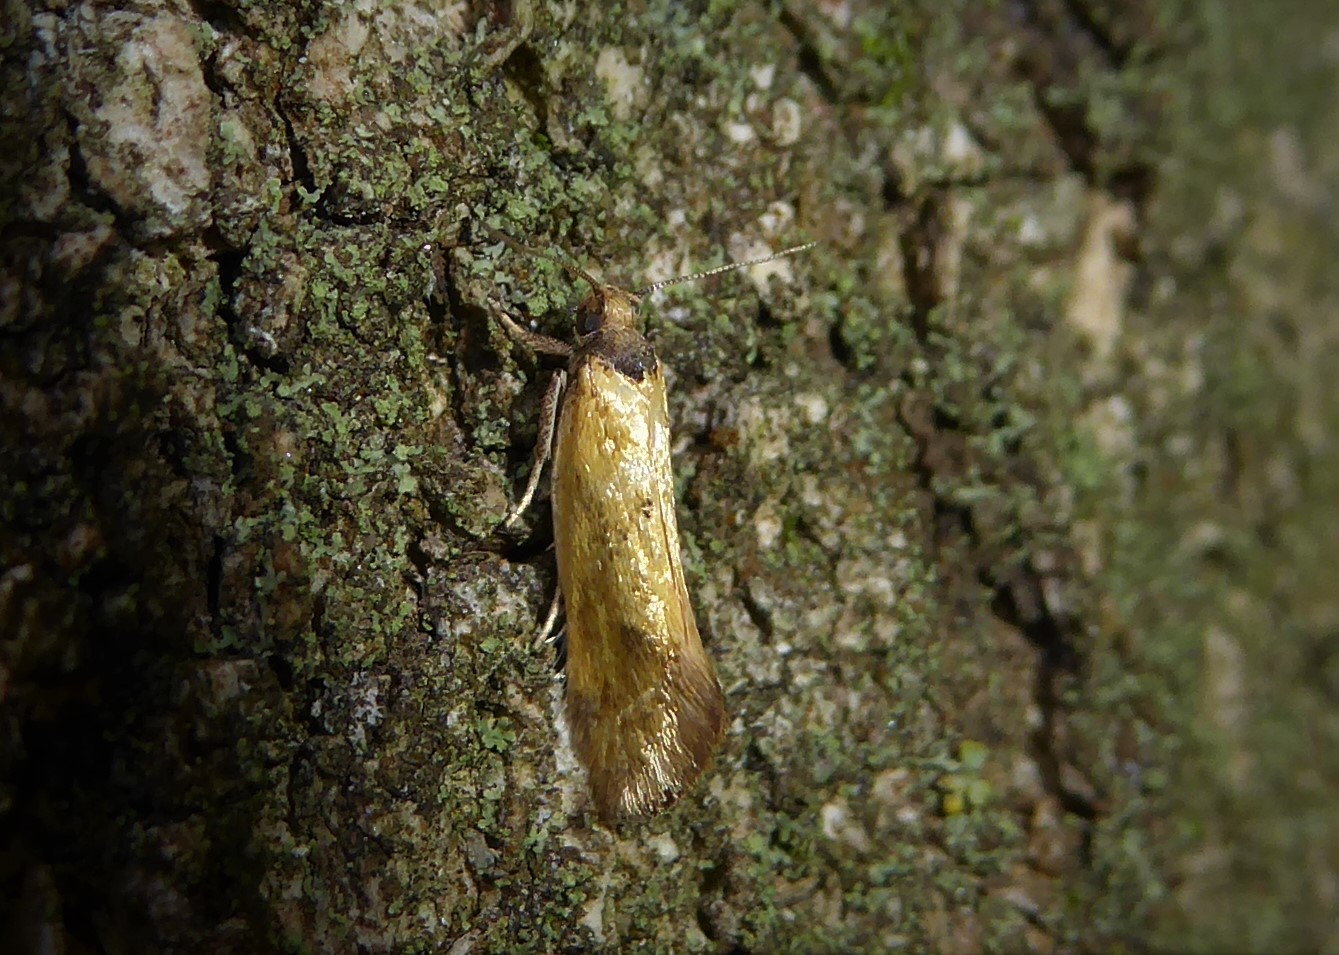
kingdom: Animalia
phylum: Arthropoda
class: Insecta
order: Lepidoptera
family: Oecophoridae
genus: Tingena
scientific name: Tingena melinella
